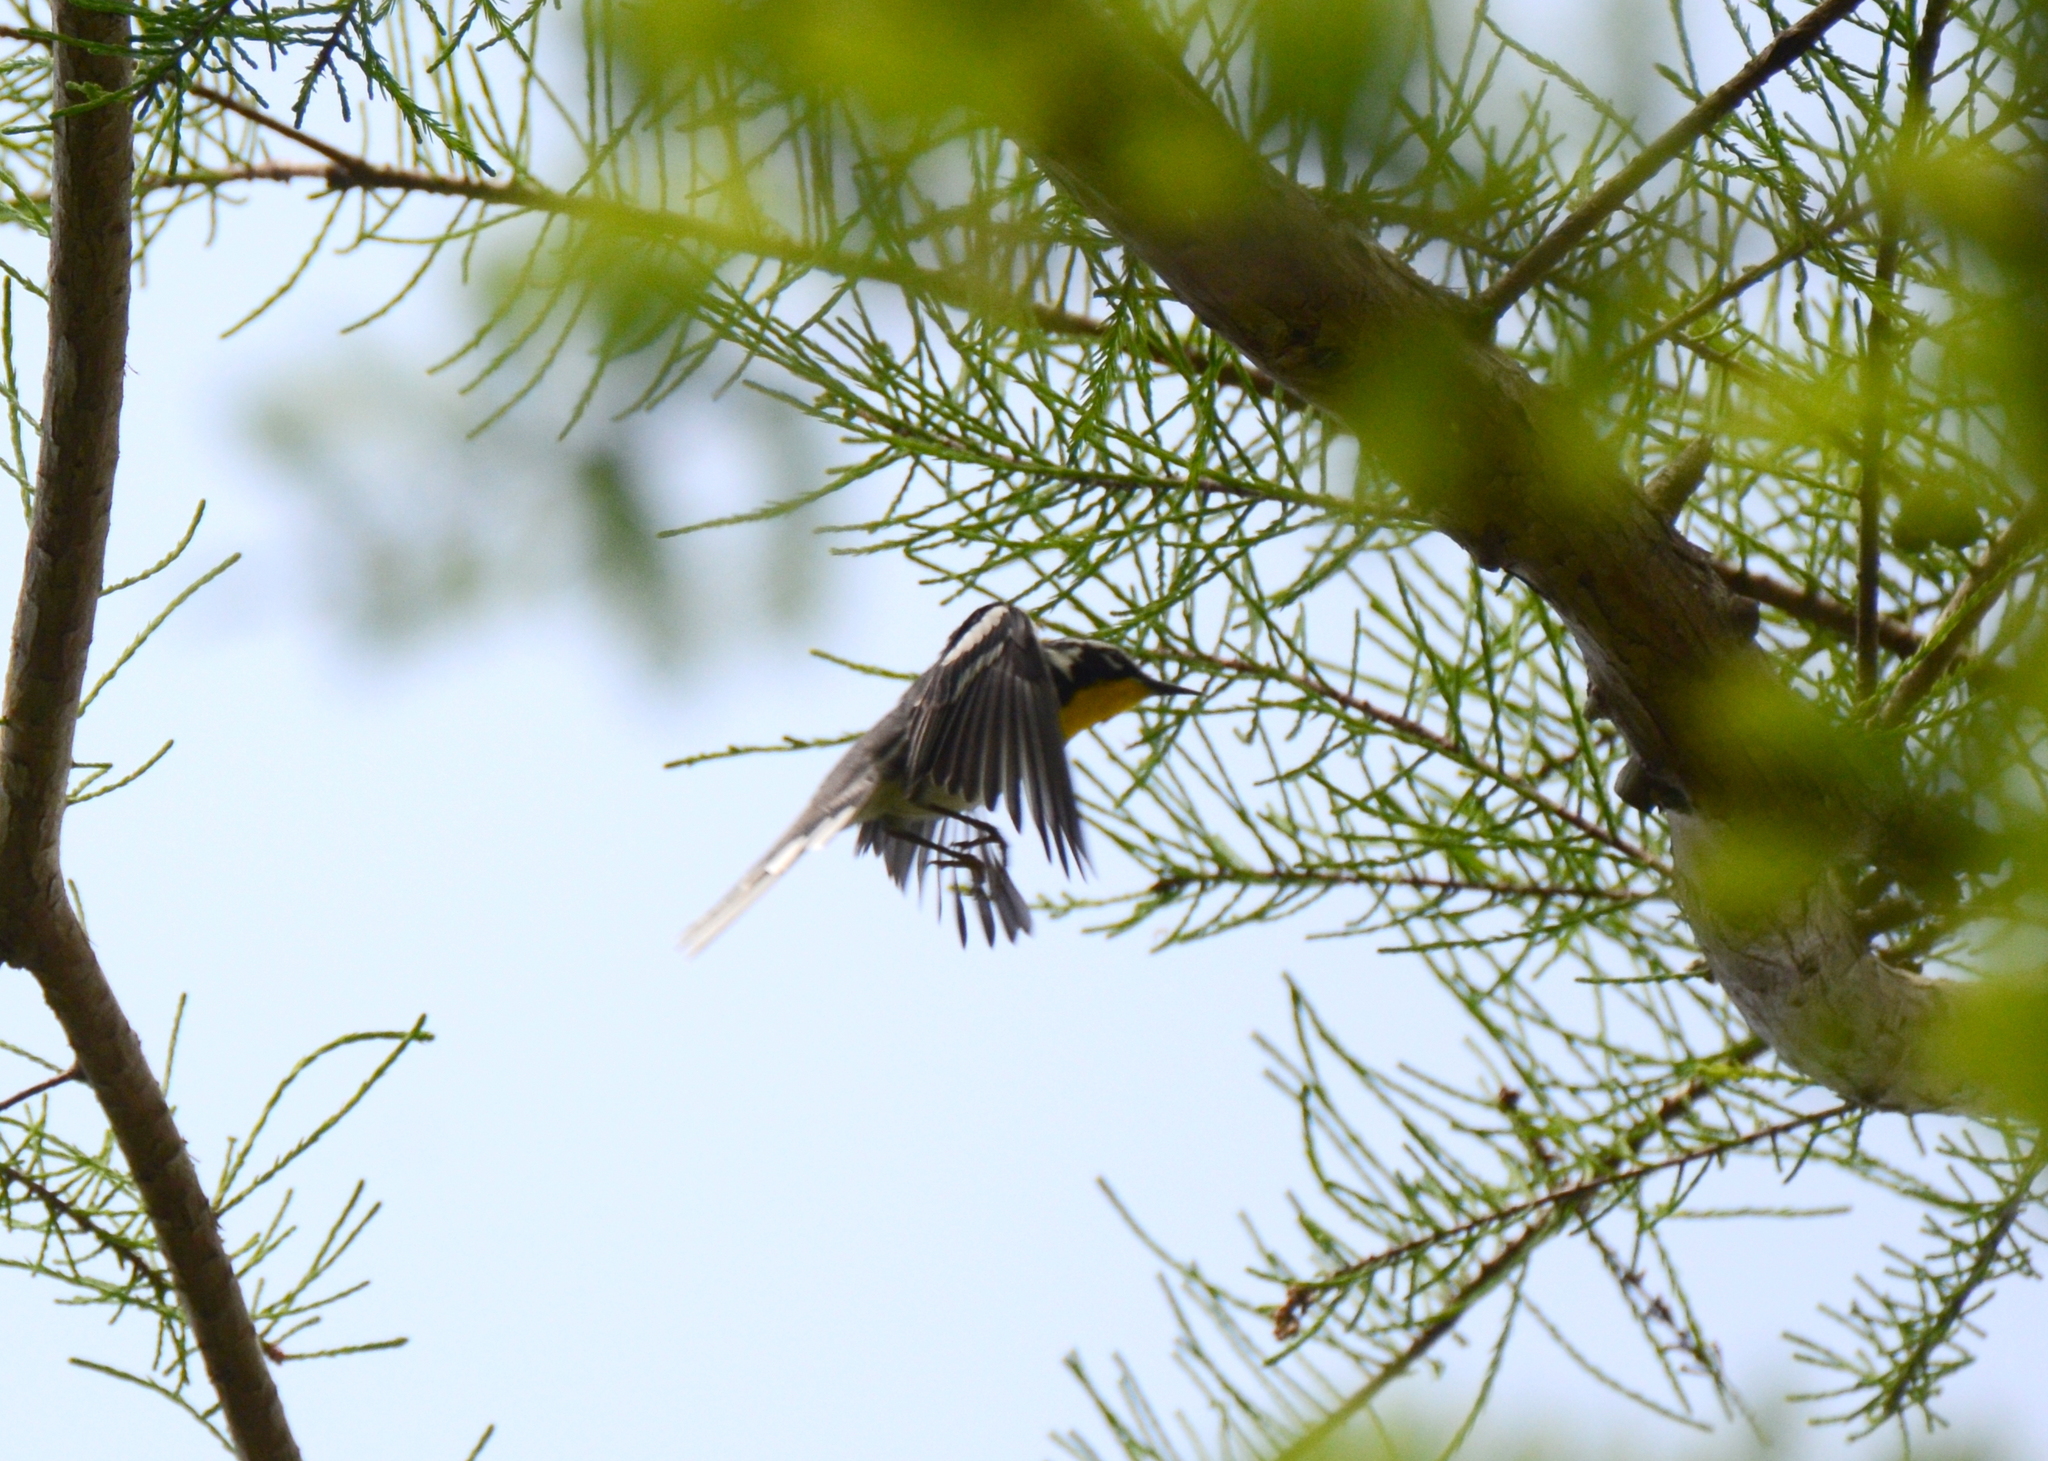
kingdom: Animalia
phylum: Chordata
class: Aves
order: Passeriformes
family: Parulidae
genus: Setophaga
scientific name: Setophaga dominica
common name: Yellow-throated warbler
